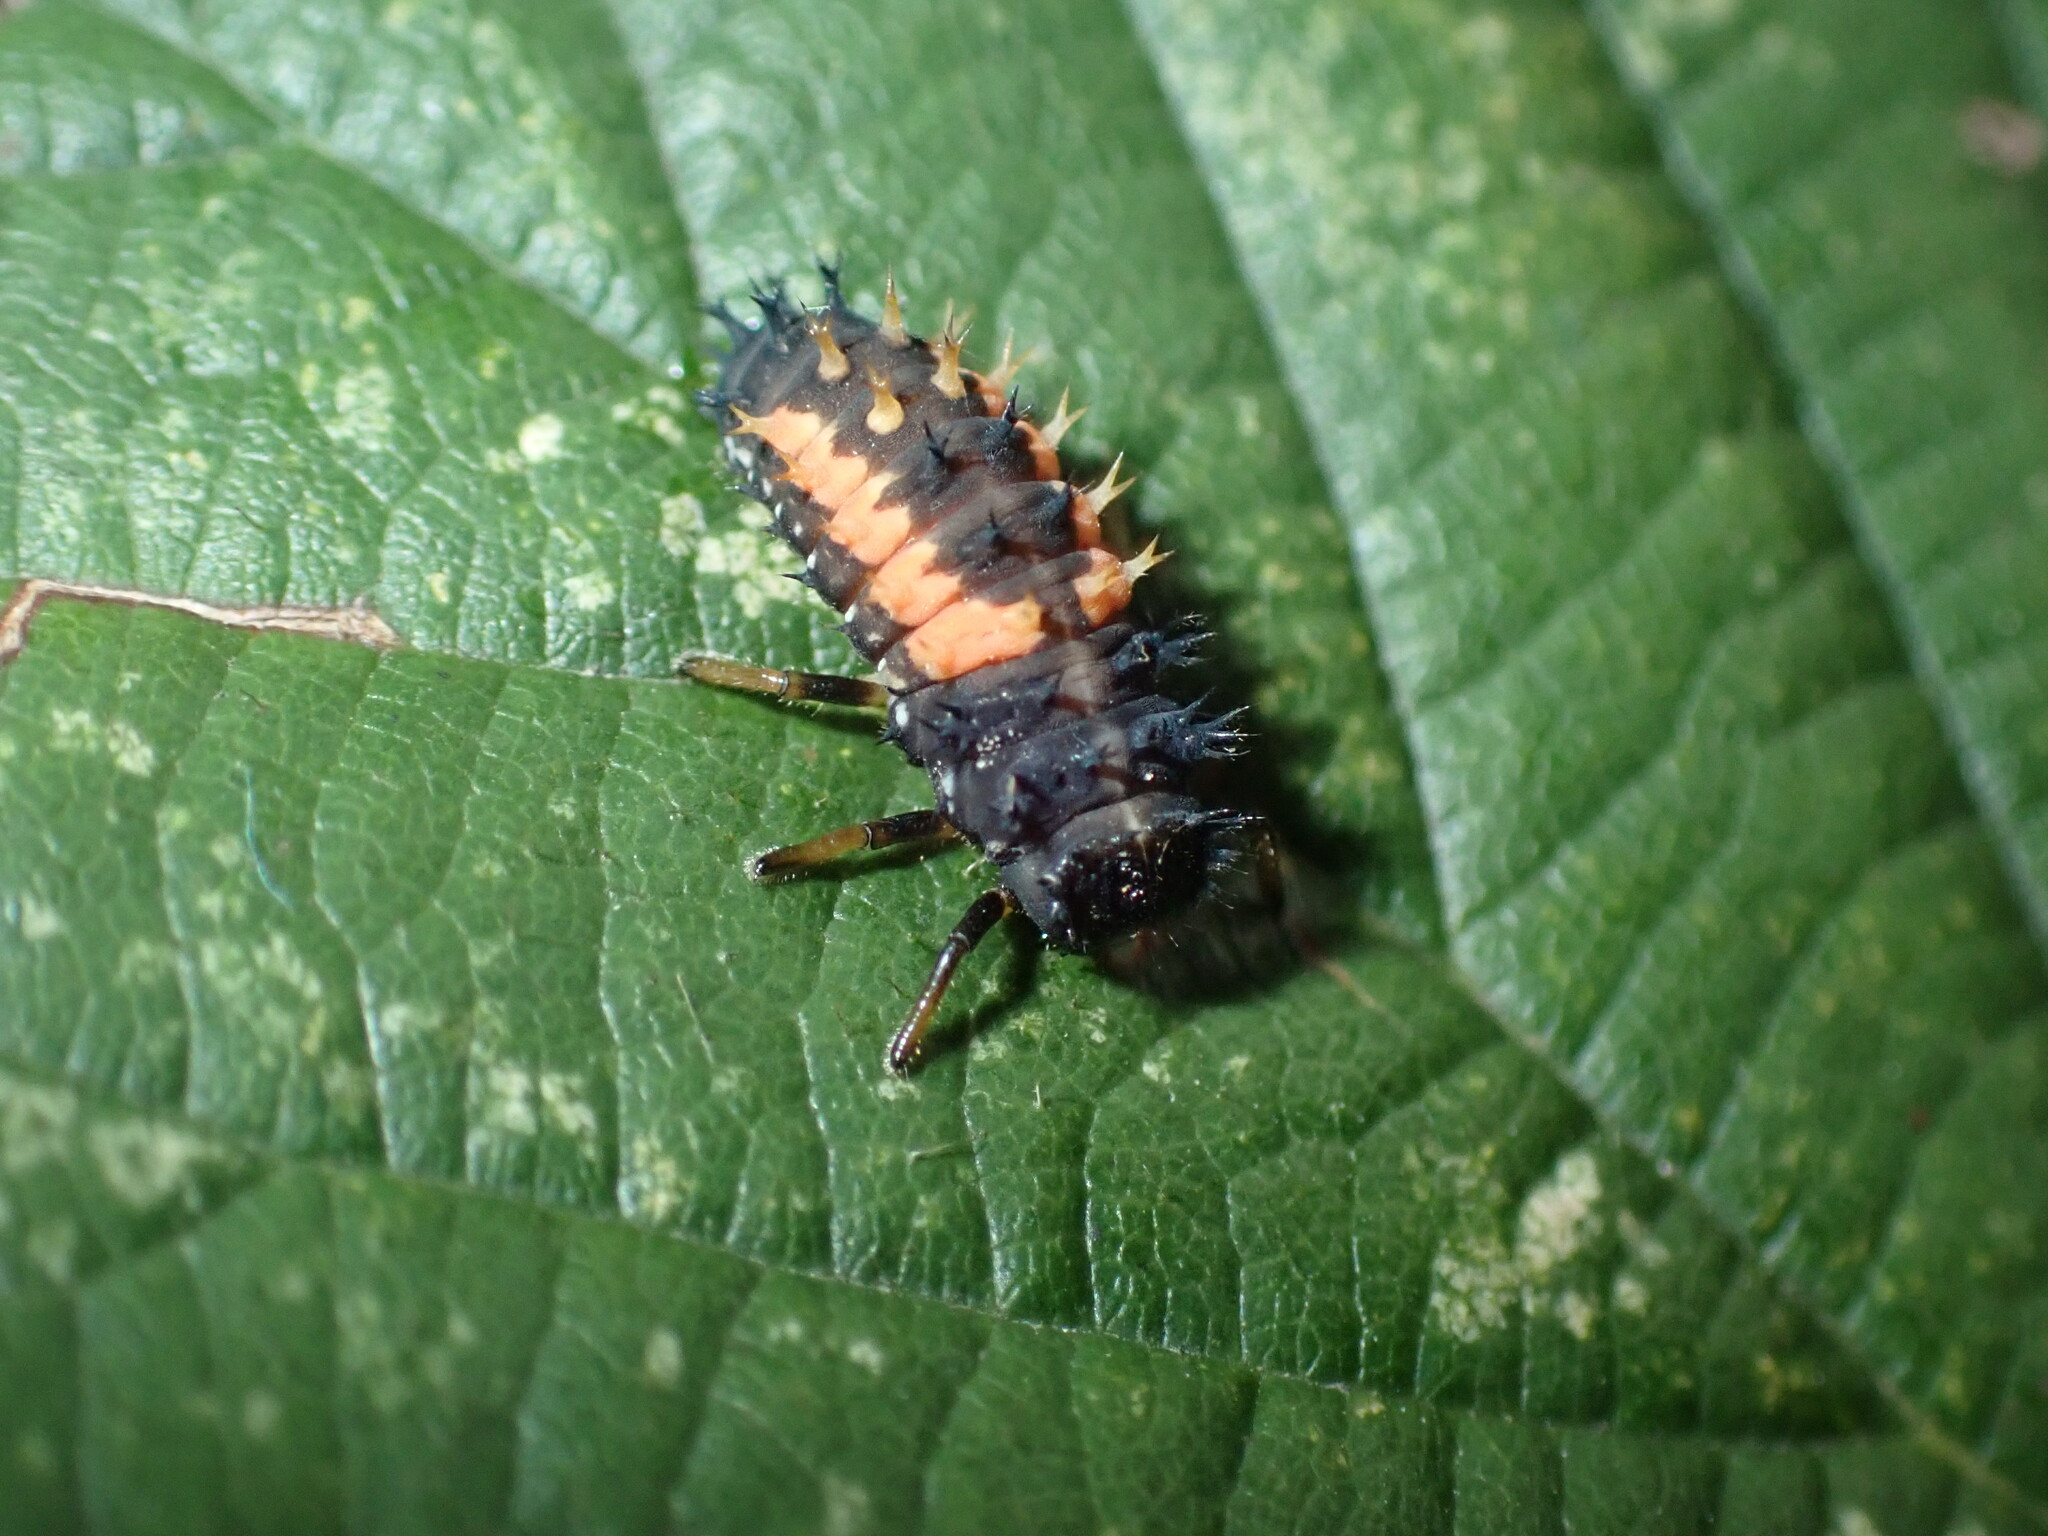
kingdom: Animalia
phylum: Arthropoda
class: Insecta
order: Coleoptera
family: Coccinellidae
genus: Harmonia
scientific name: Harmonia axyridis
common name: Harlequin ladybird
